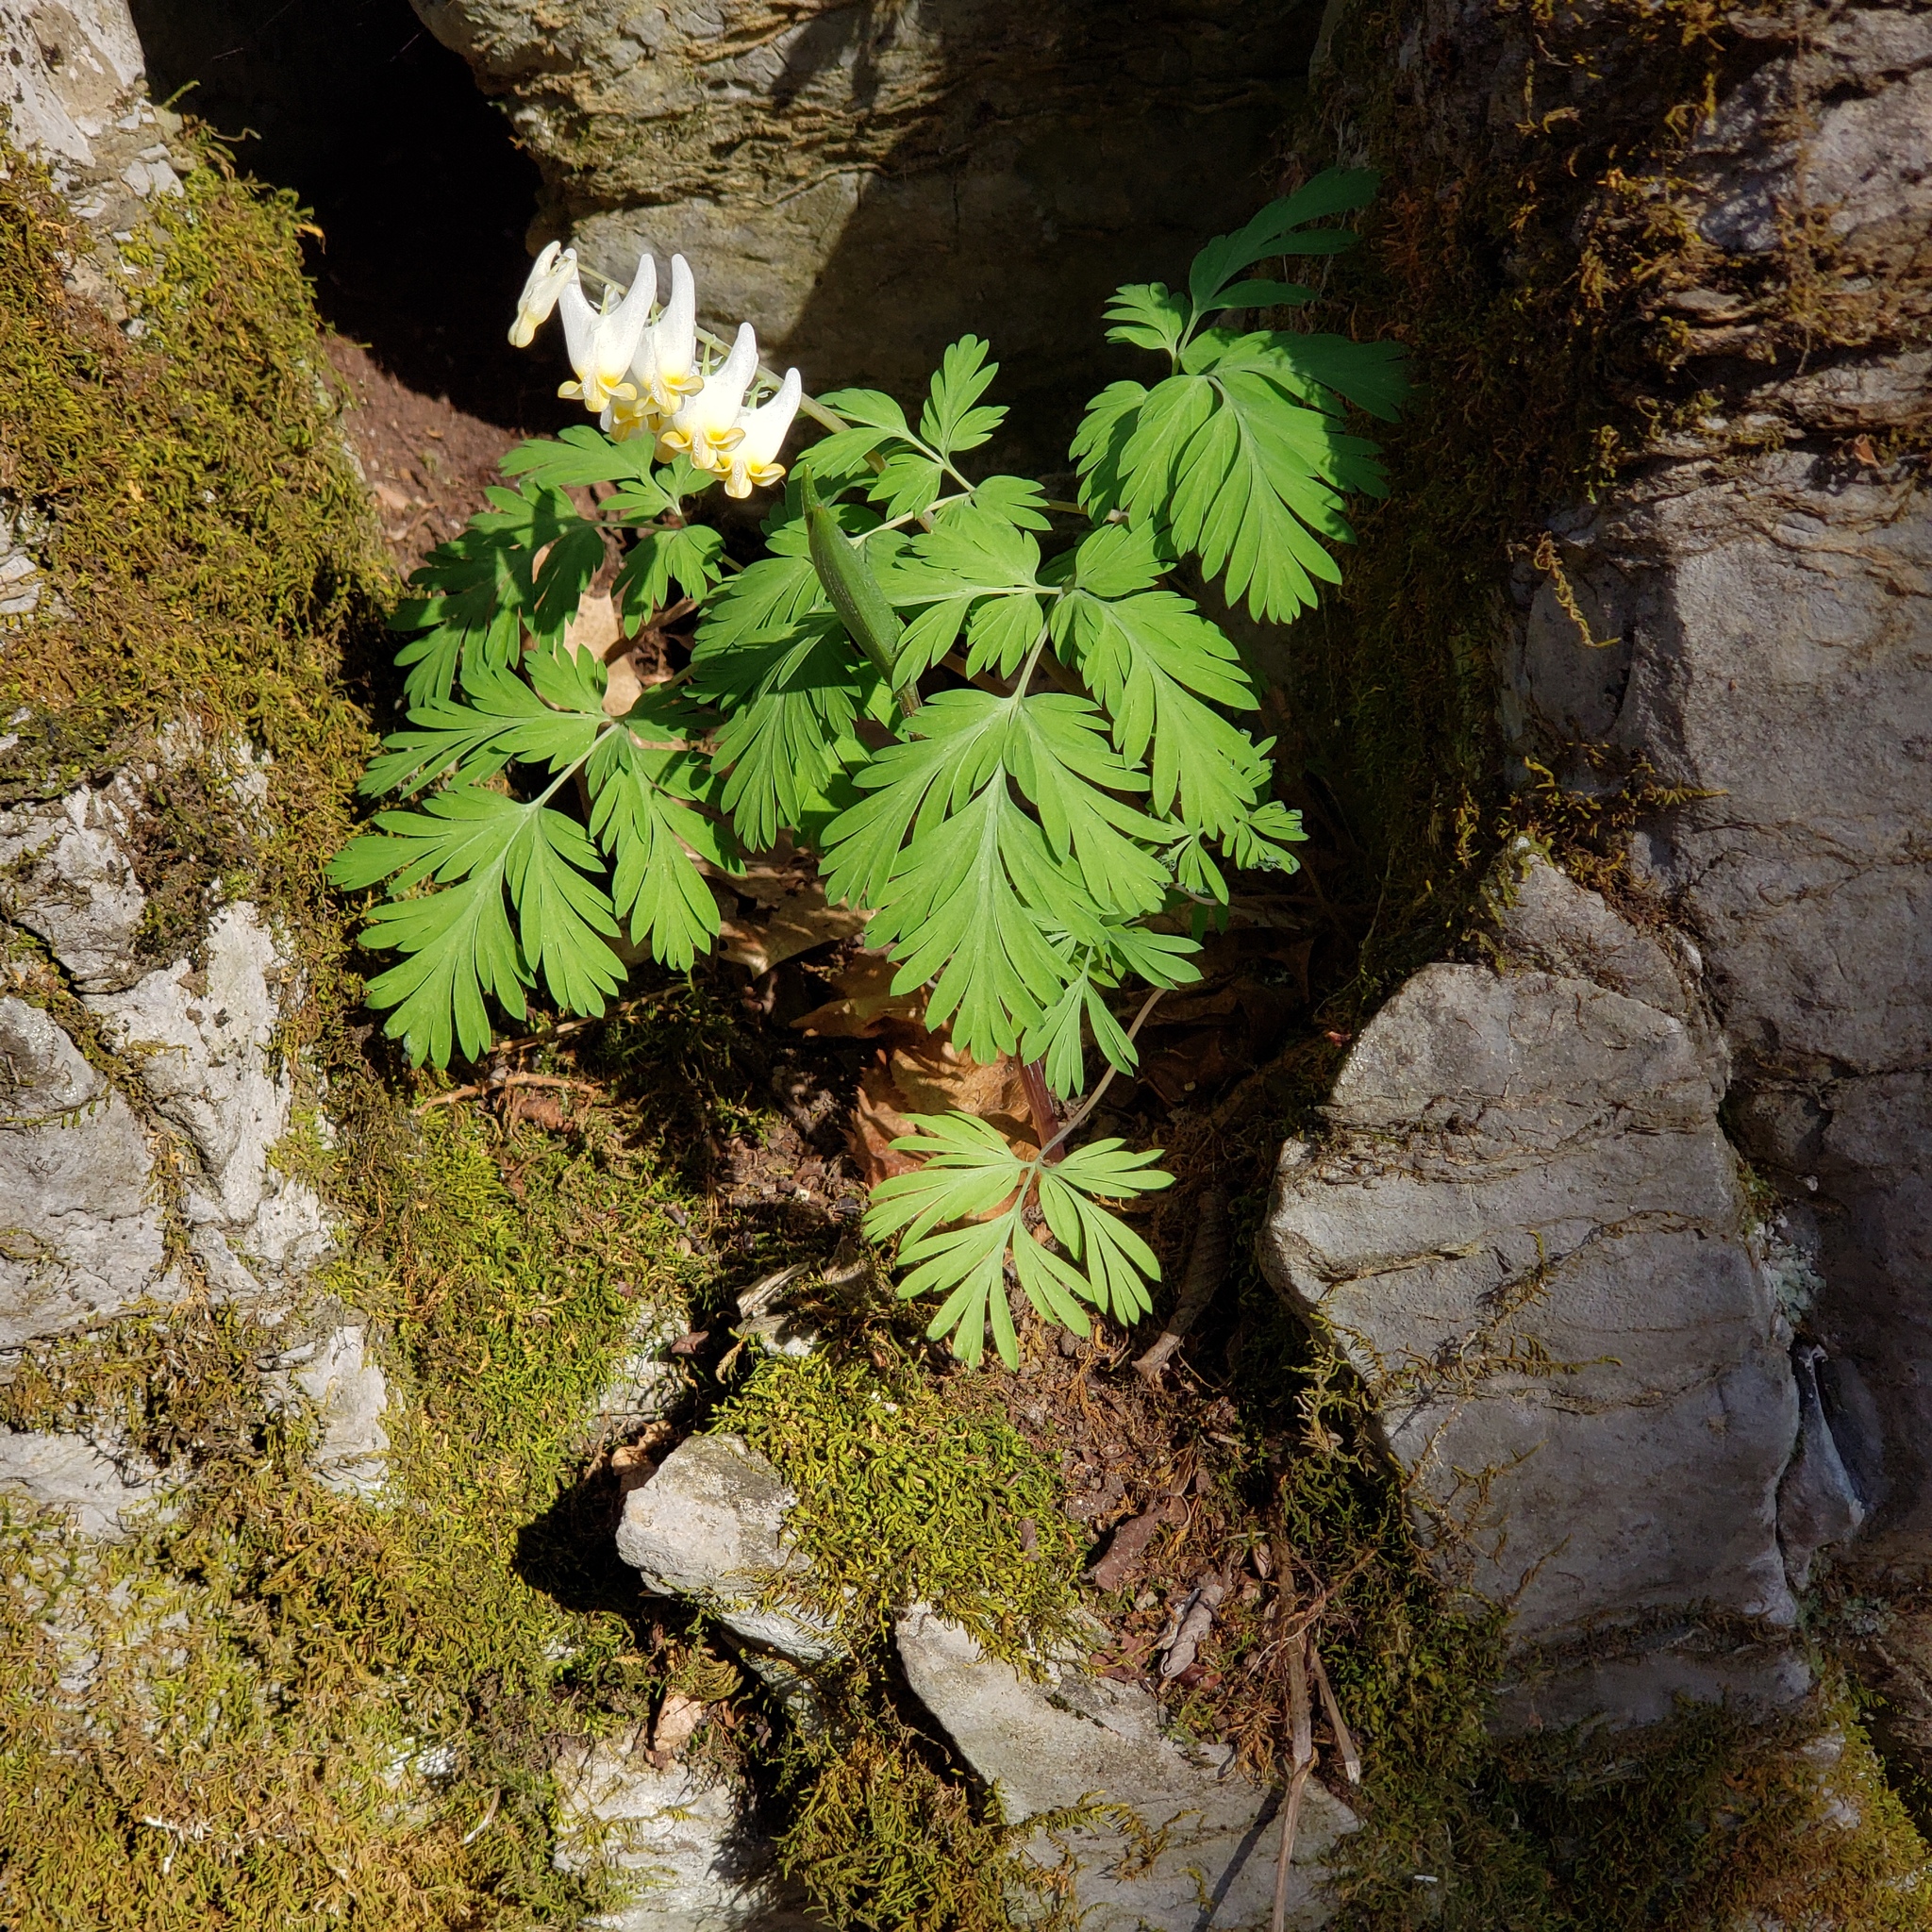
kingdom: Plantae
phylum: Tracheophyta
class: Magnoliopsida
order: Ranunculales
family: Papaveraceae
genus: Dicentra
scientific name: Dicentra cucullaria
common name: Dutchman's breeches
